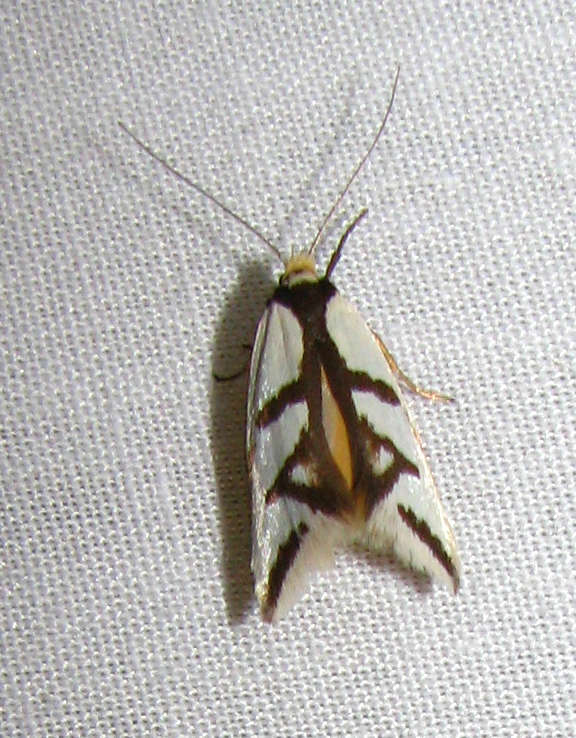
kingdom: Animalia
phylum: Arthropoda
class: Insecta
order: Lepidoptera
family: Oecophoridae
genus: Ocystola
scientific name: Ocystola paulinella
